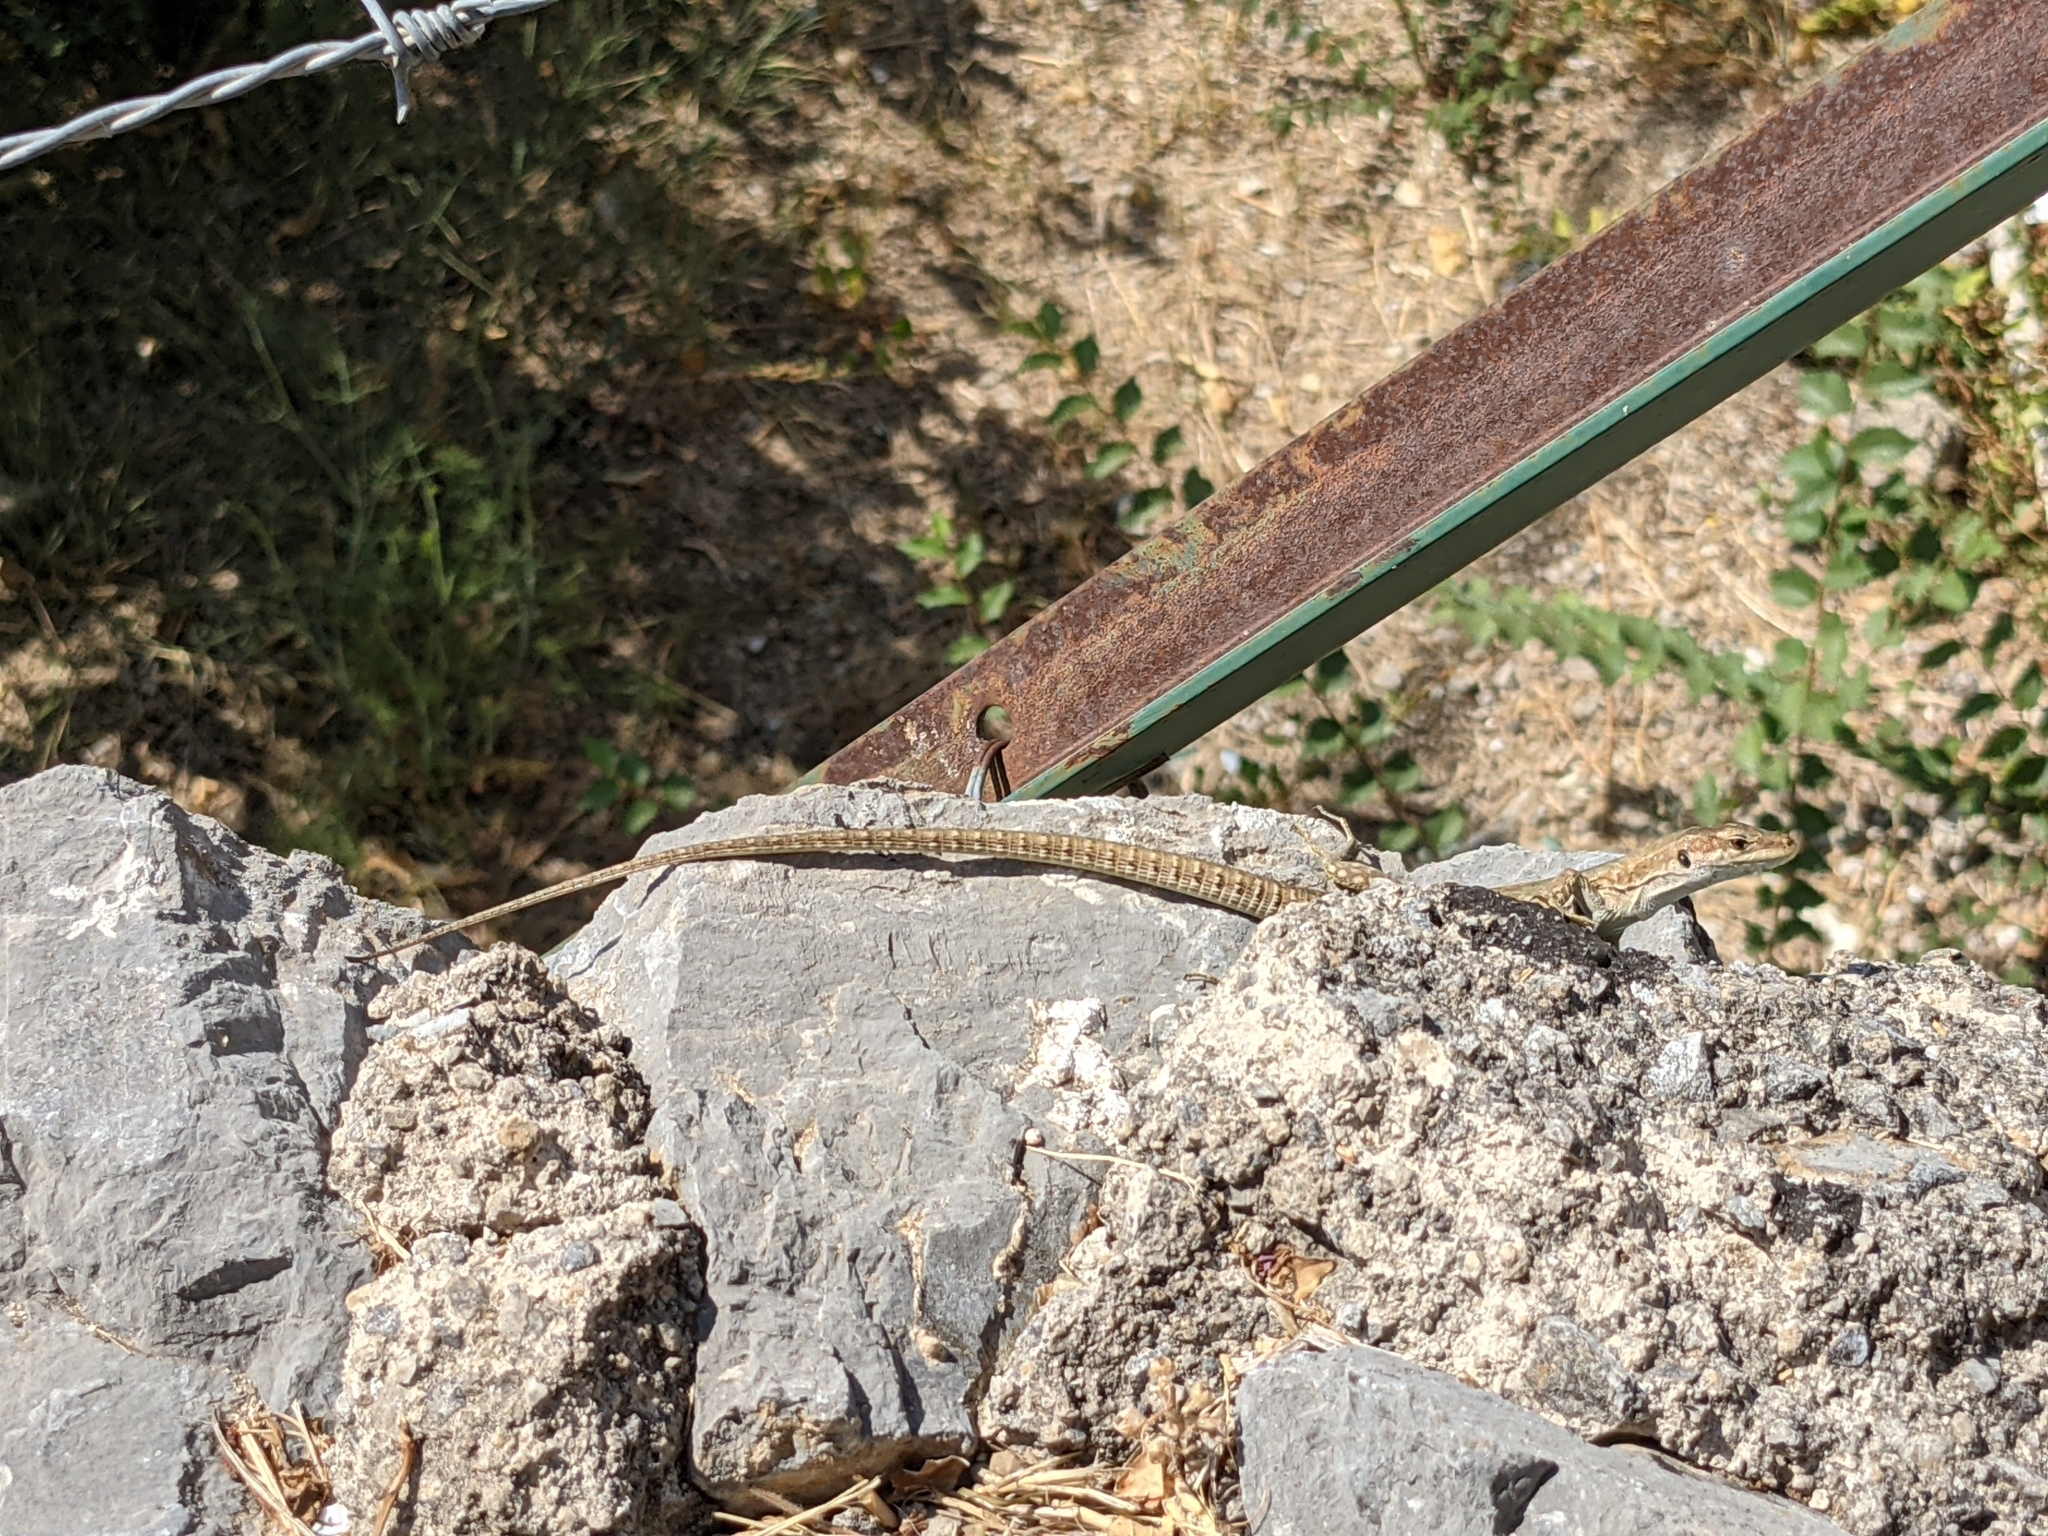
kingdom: Animalia
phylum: Chordata
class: Squamata
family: Lacertidae
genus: Podarcis
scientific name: Podarcis siculus
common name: Italian wall lizard
